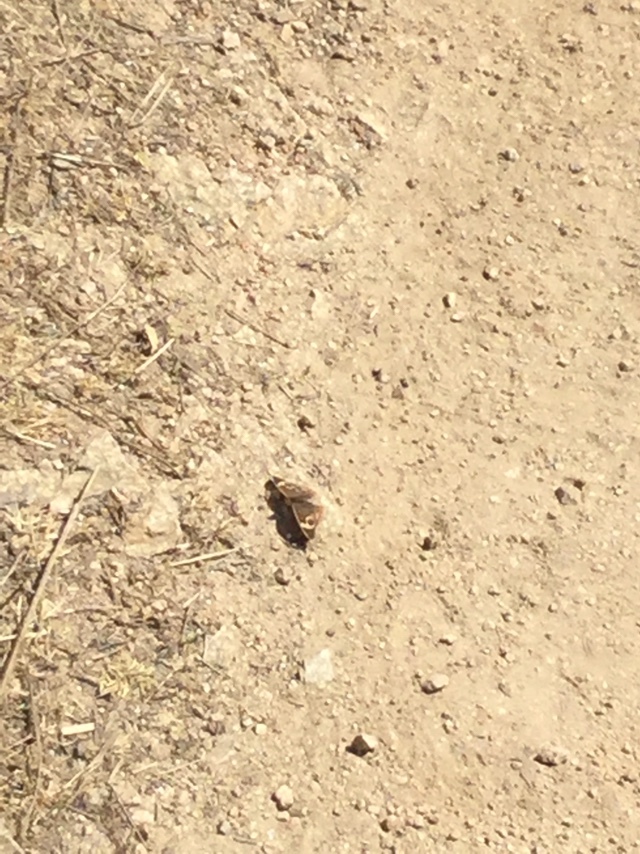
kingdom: Animalia
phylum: Arthropoda
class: Insecta
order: Lepidoptera
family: Nymphalidae
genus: Junonia
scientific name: Junonia grisea
